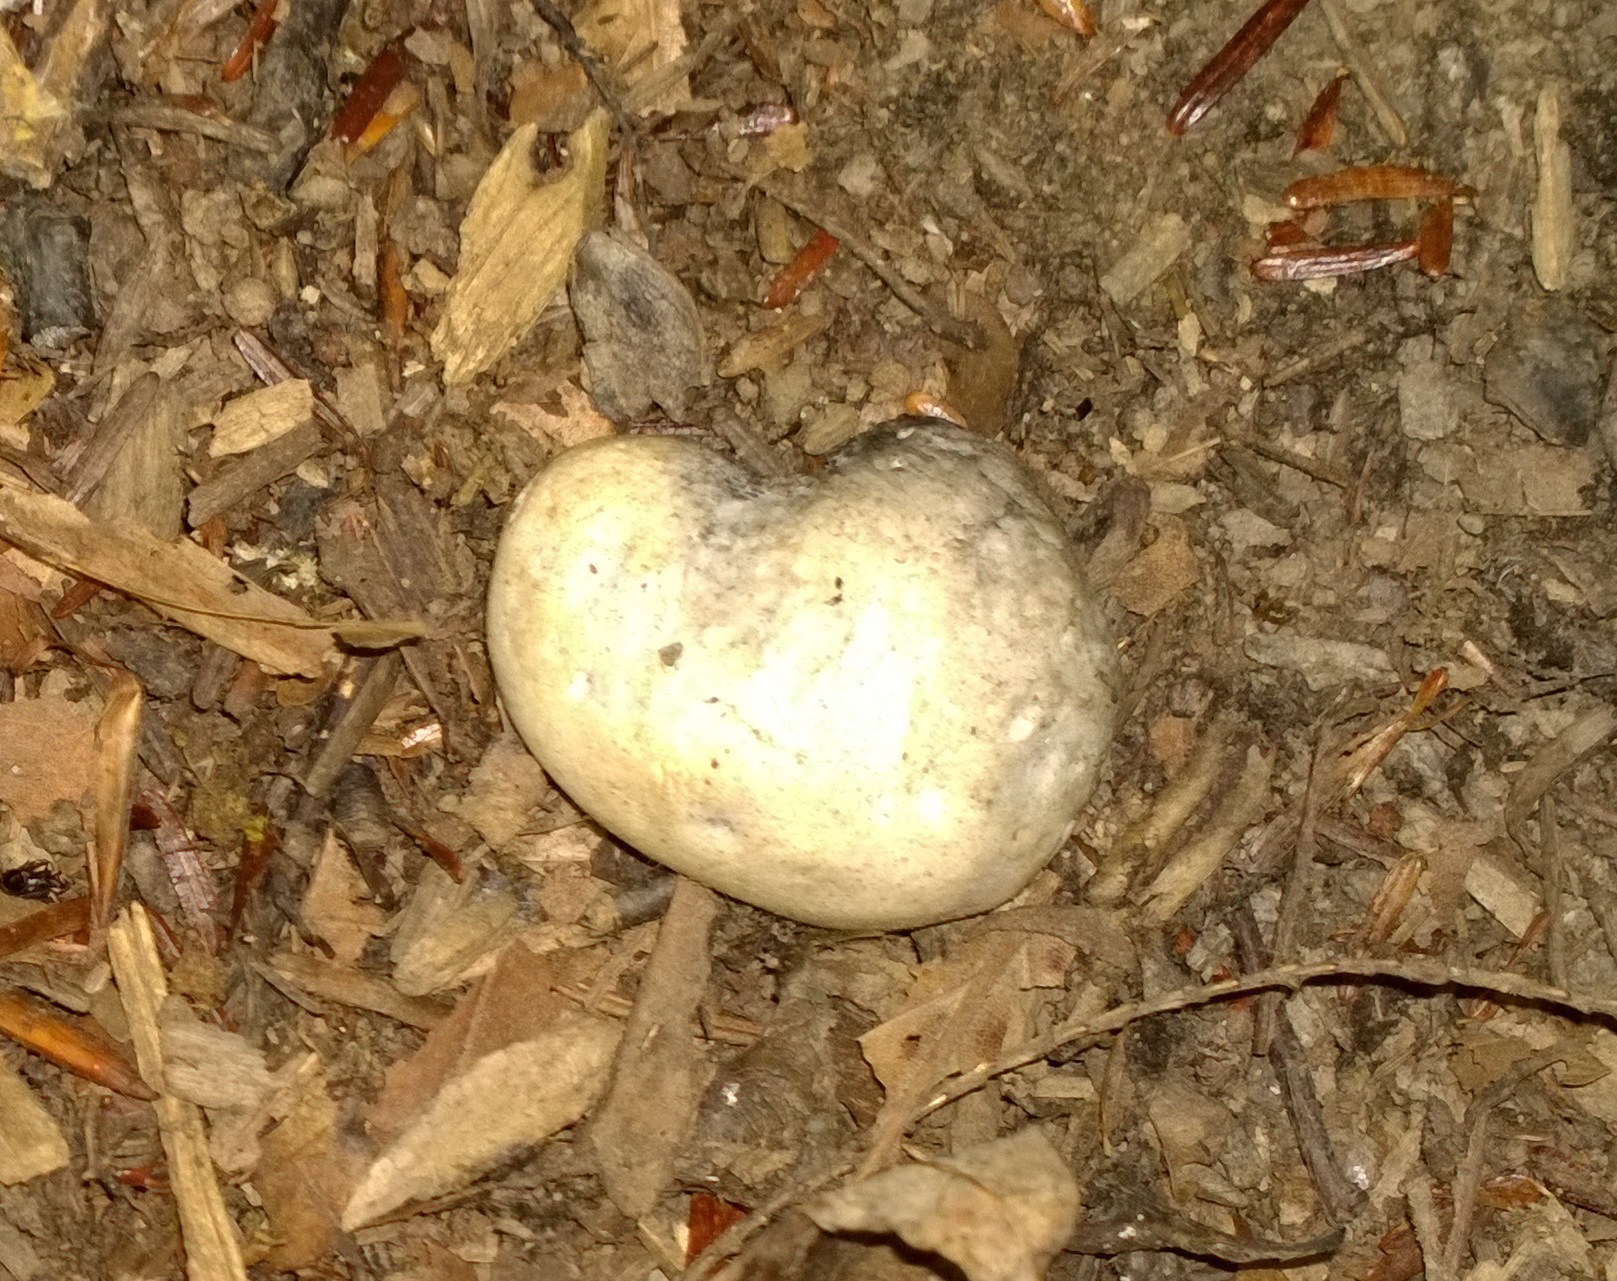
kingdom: Fungi
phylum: Basidiomycota
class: Agaricomycetes
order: Thelephorales
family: Bankeraceae
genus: Boletopsis
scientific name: Boletopsis grisea
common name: Grey falsebolete
